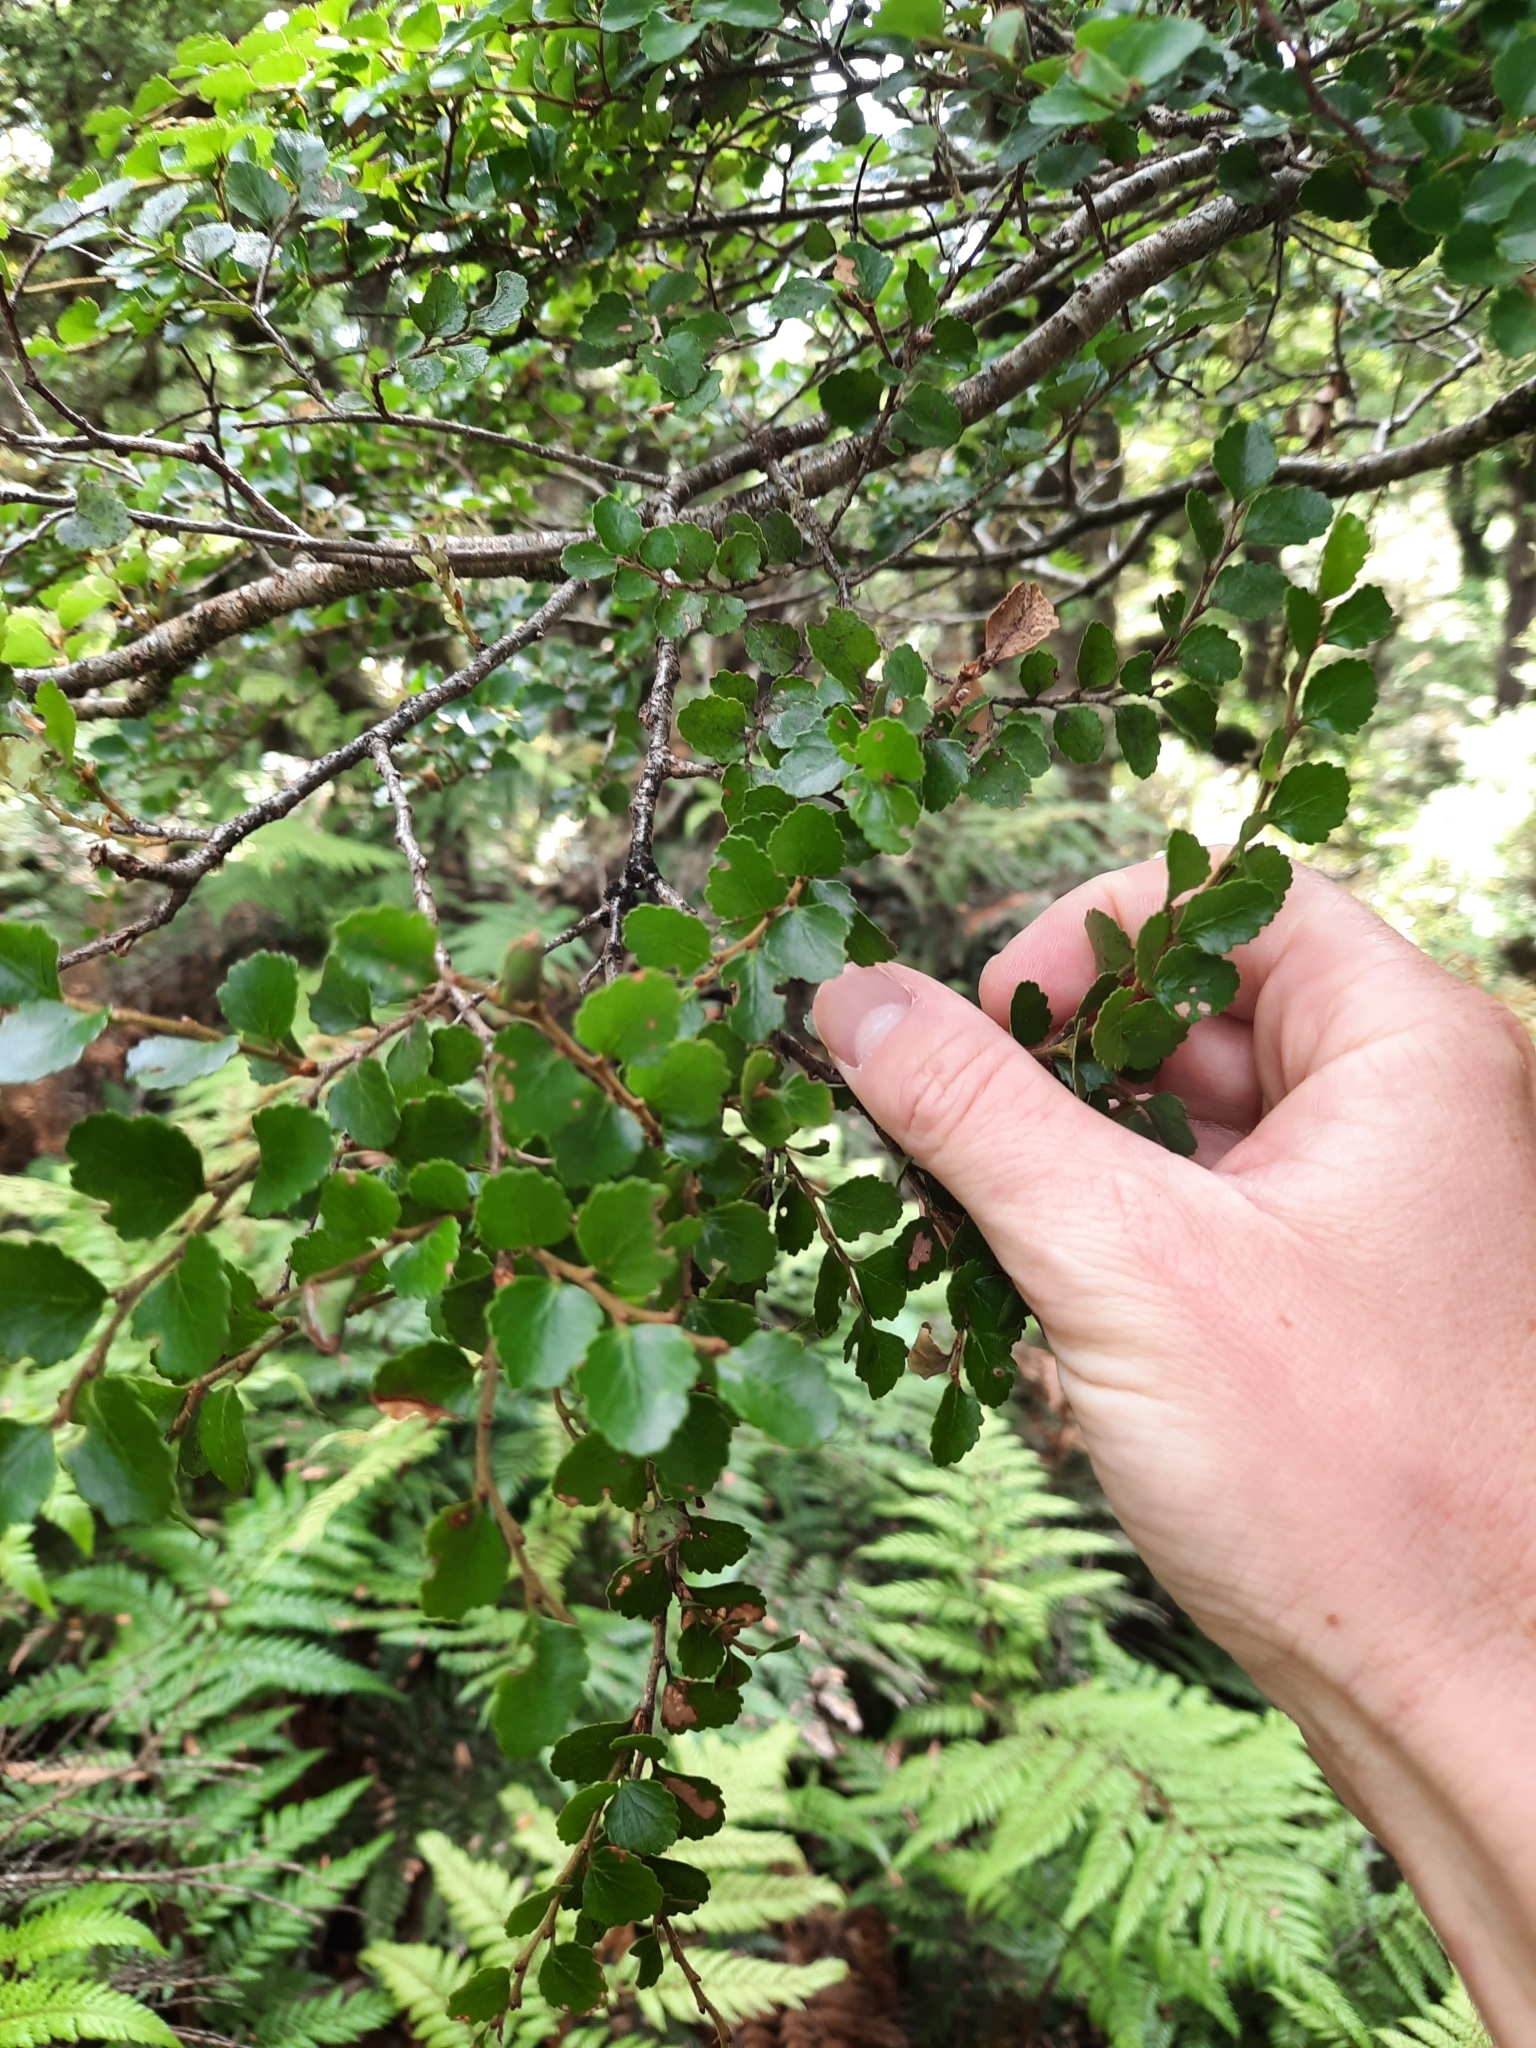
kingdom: Plantae
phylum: Tracheophyta
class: Magnoliopsida
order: Fagales
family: Nothofagaceae
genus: Nothofagus
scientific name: Nothofagus menziesii
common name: Silver beech
